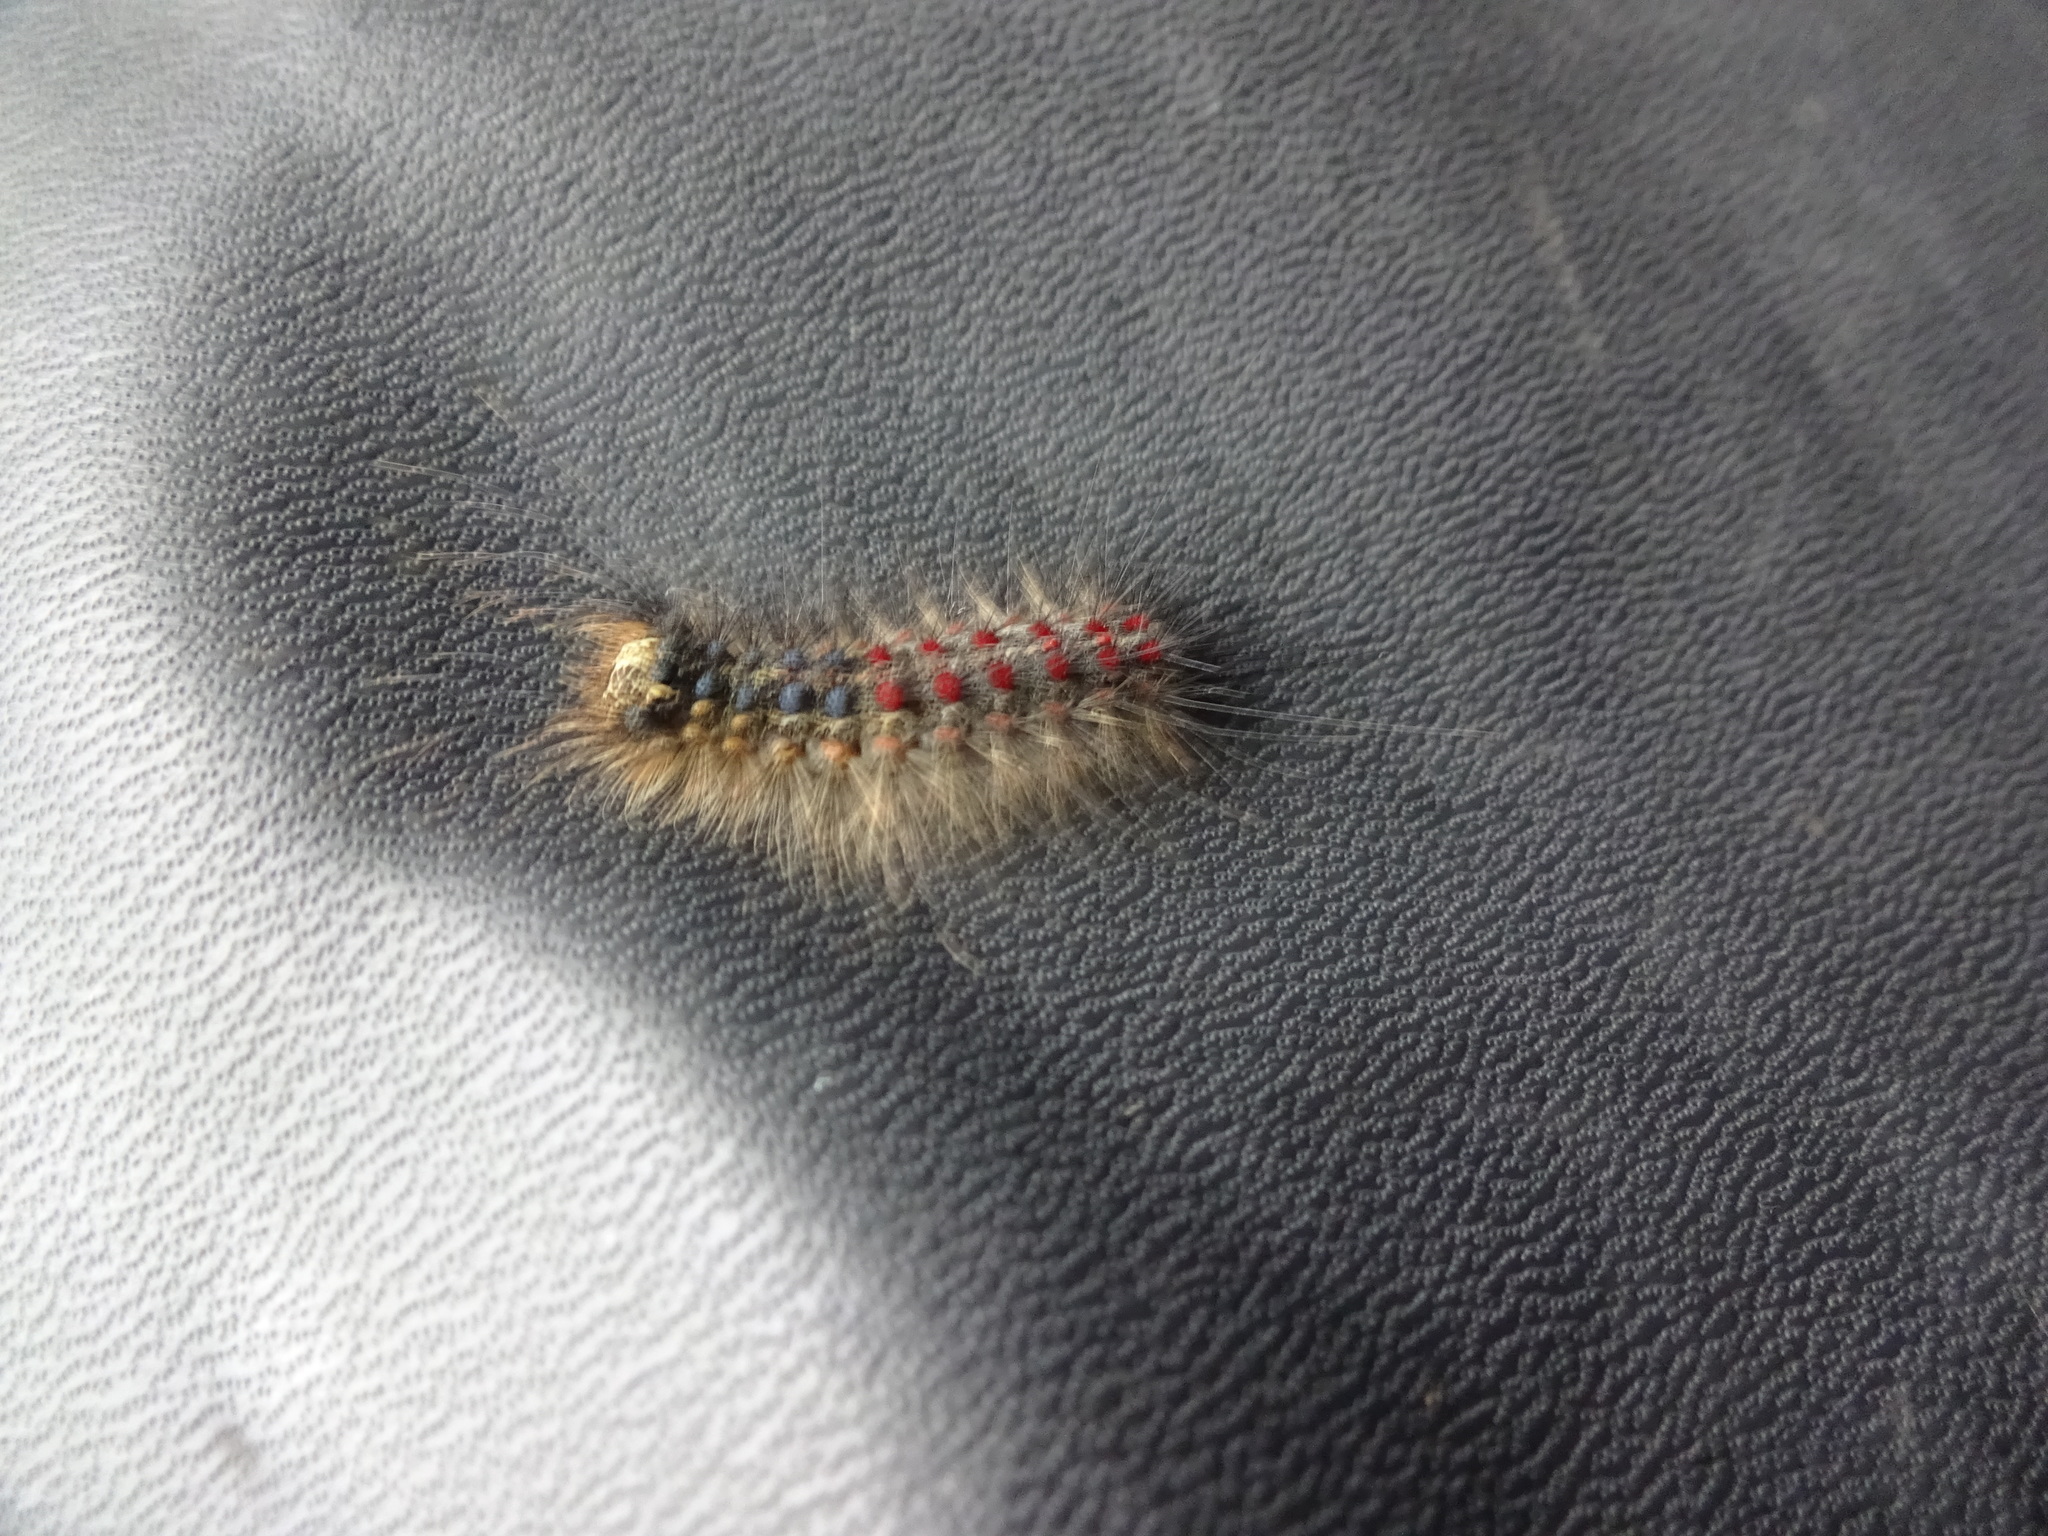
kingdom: Animalia
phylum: Arthropoda
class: Insecta
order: Lepidoptera
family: Erebidae
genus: Lymantria
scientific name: Lymantria dispar
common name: Gypsy moth
